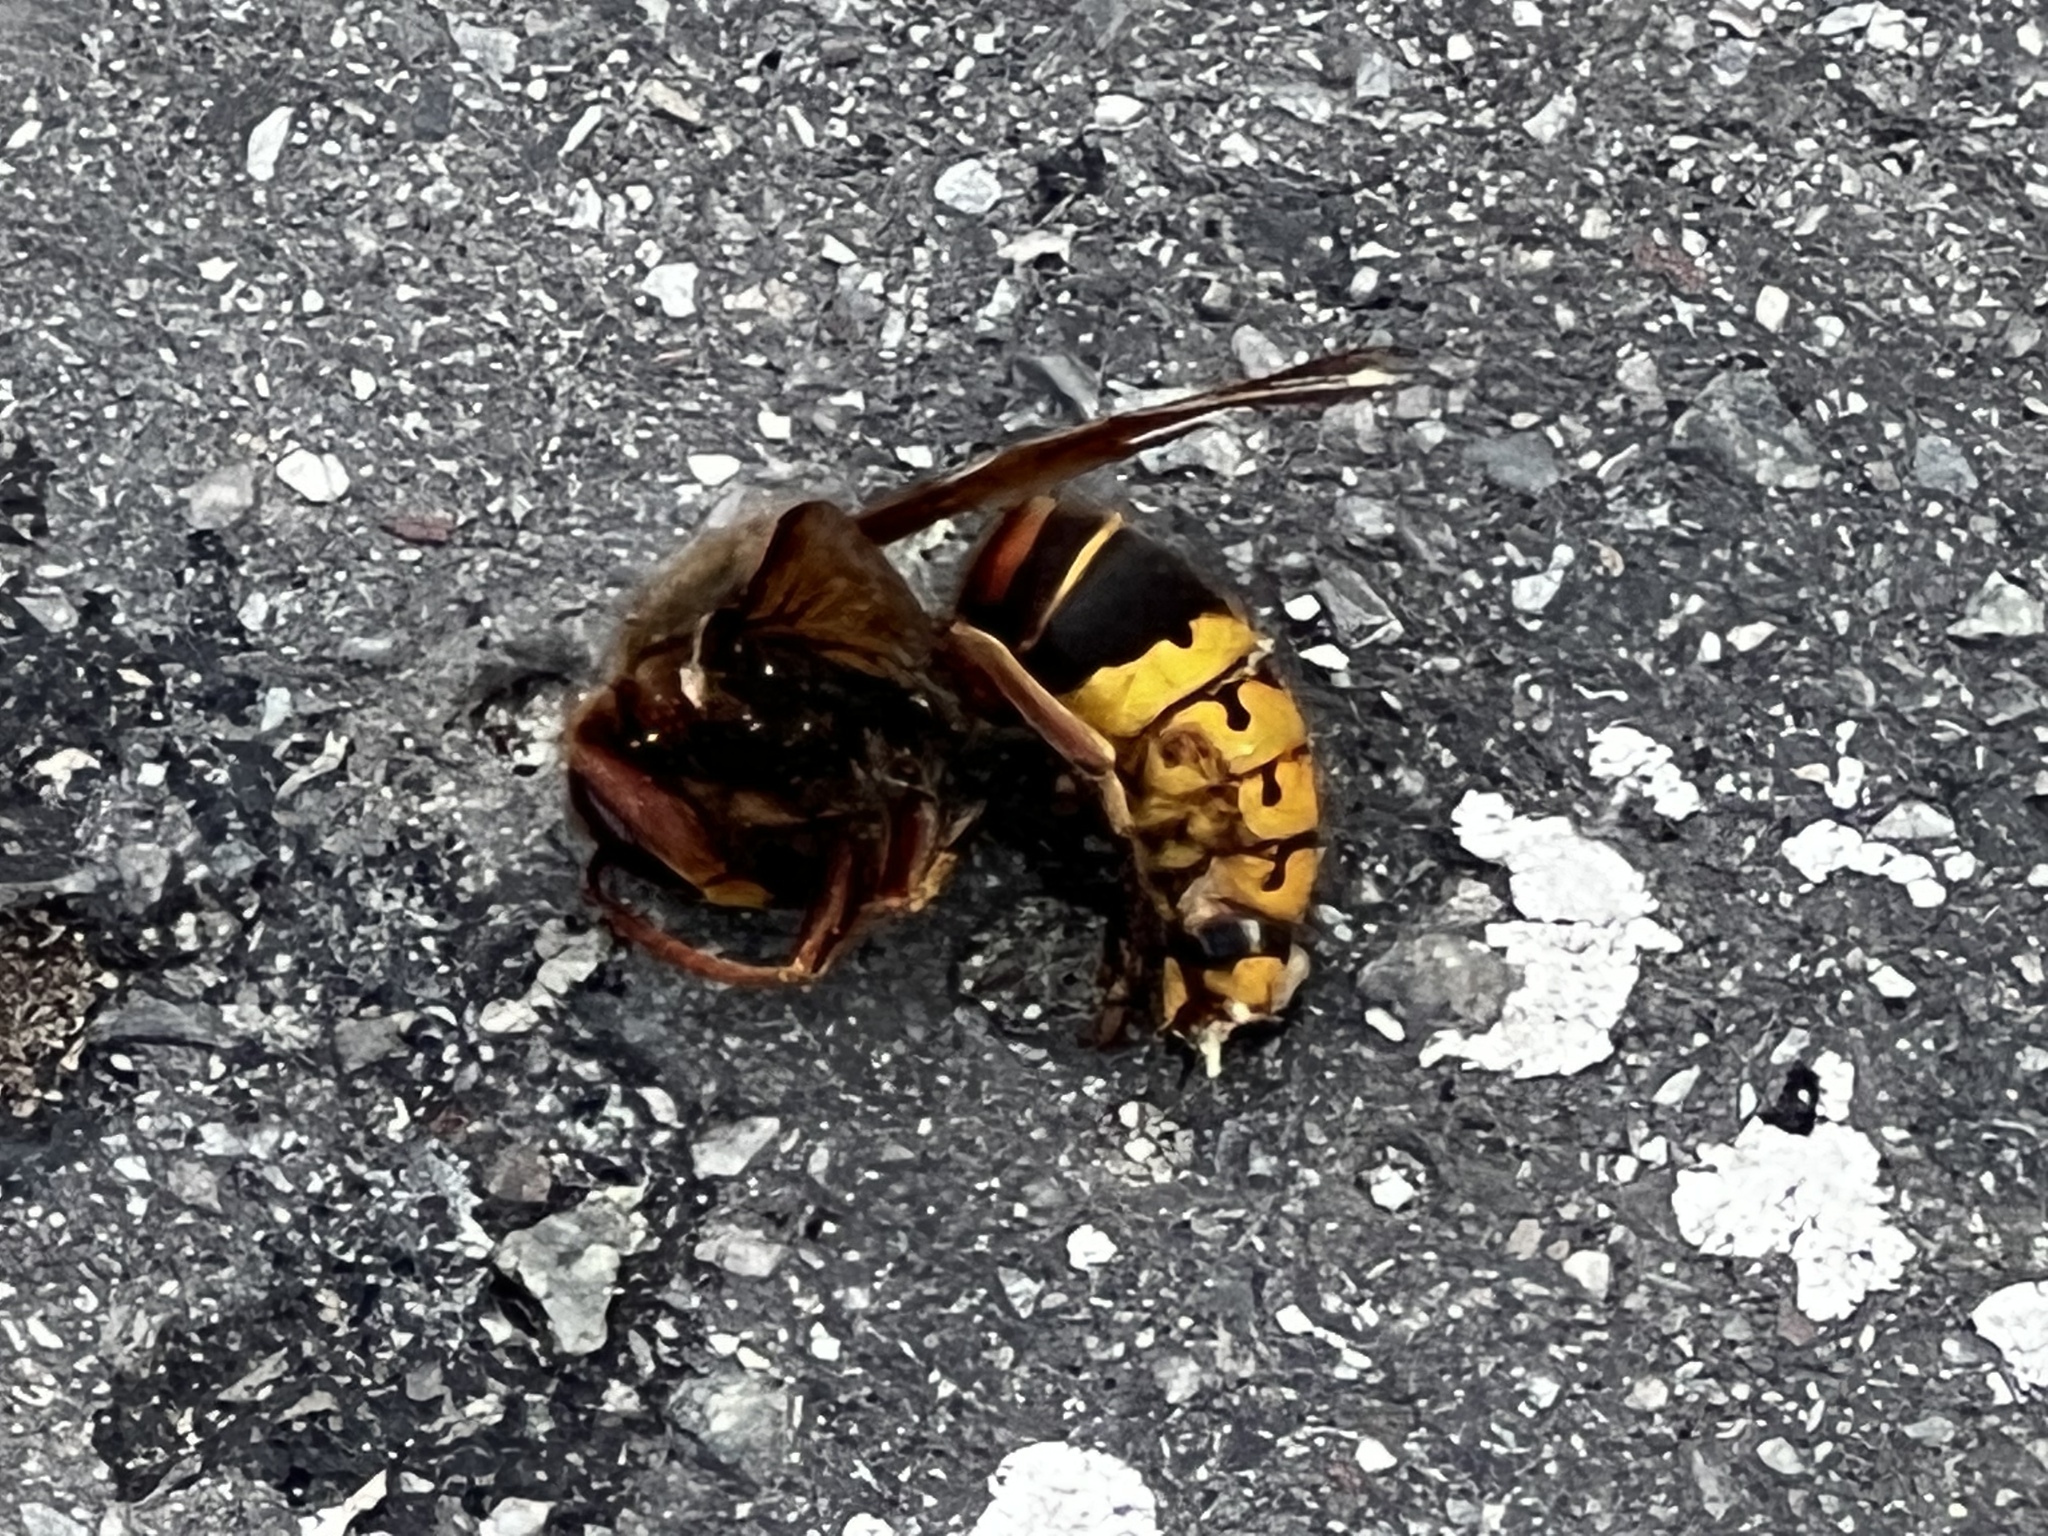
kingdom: Animalia
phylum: Arthropoda
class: Insecta
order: Hymenoptera
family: Vespidae
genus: Vespa
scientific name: Vespa crabro
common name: Hornet
